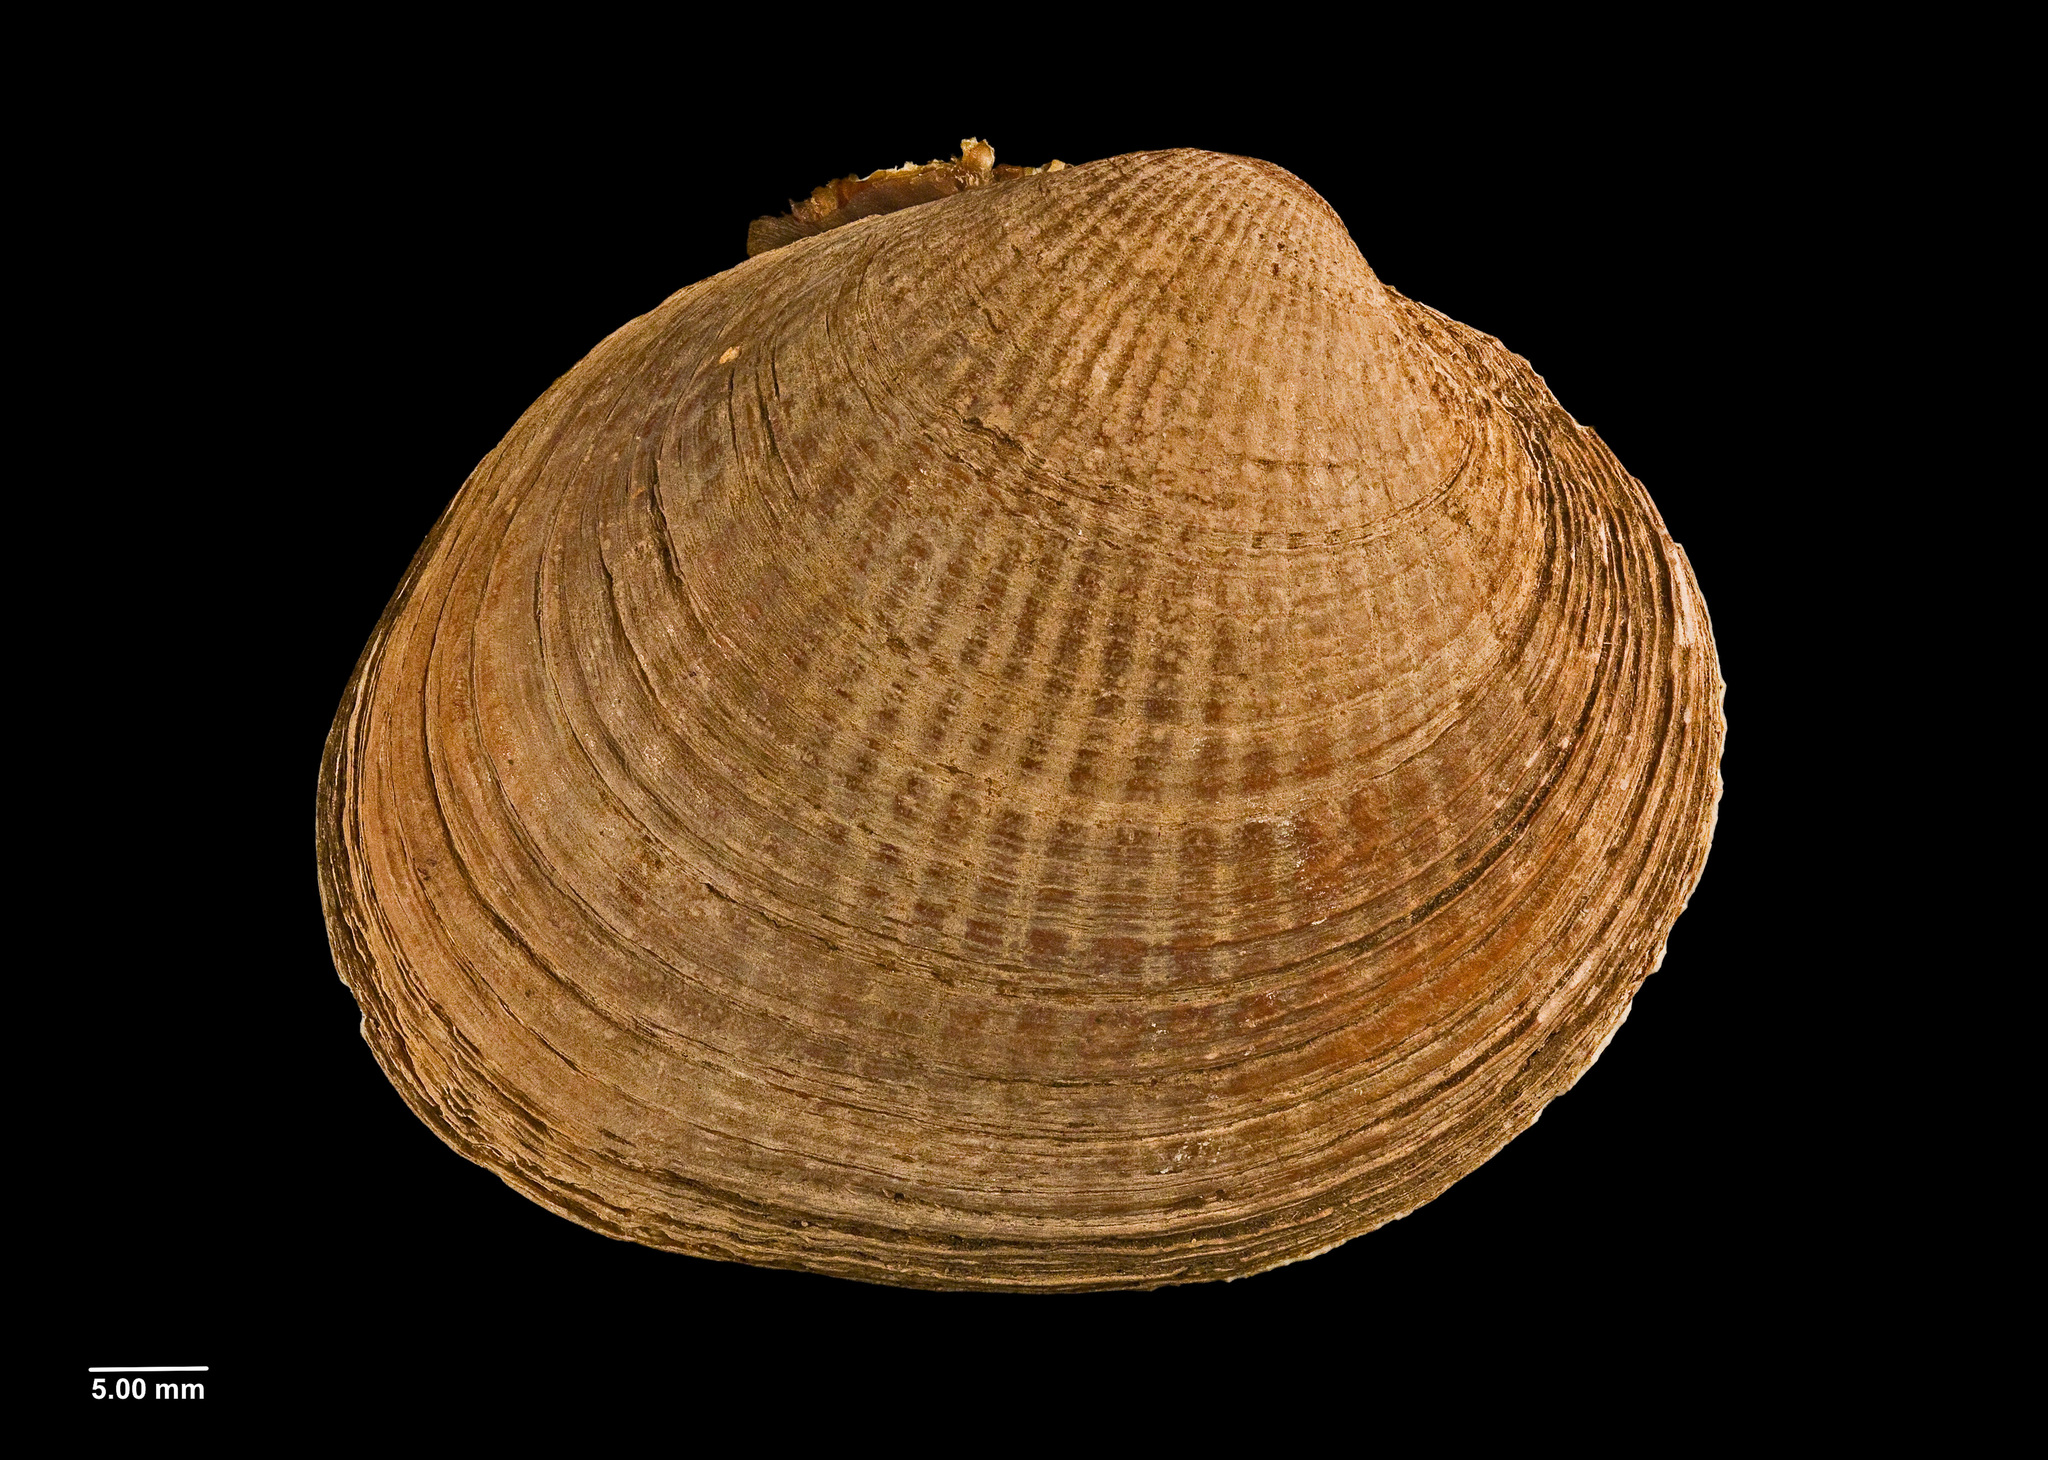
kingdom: Animalia
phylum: Mollusca
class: Bivalvia
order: Venerida
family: Veneridae
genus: Austrovenus
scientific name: Austrovenus stutchburyi
